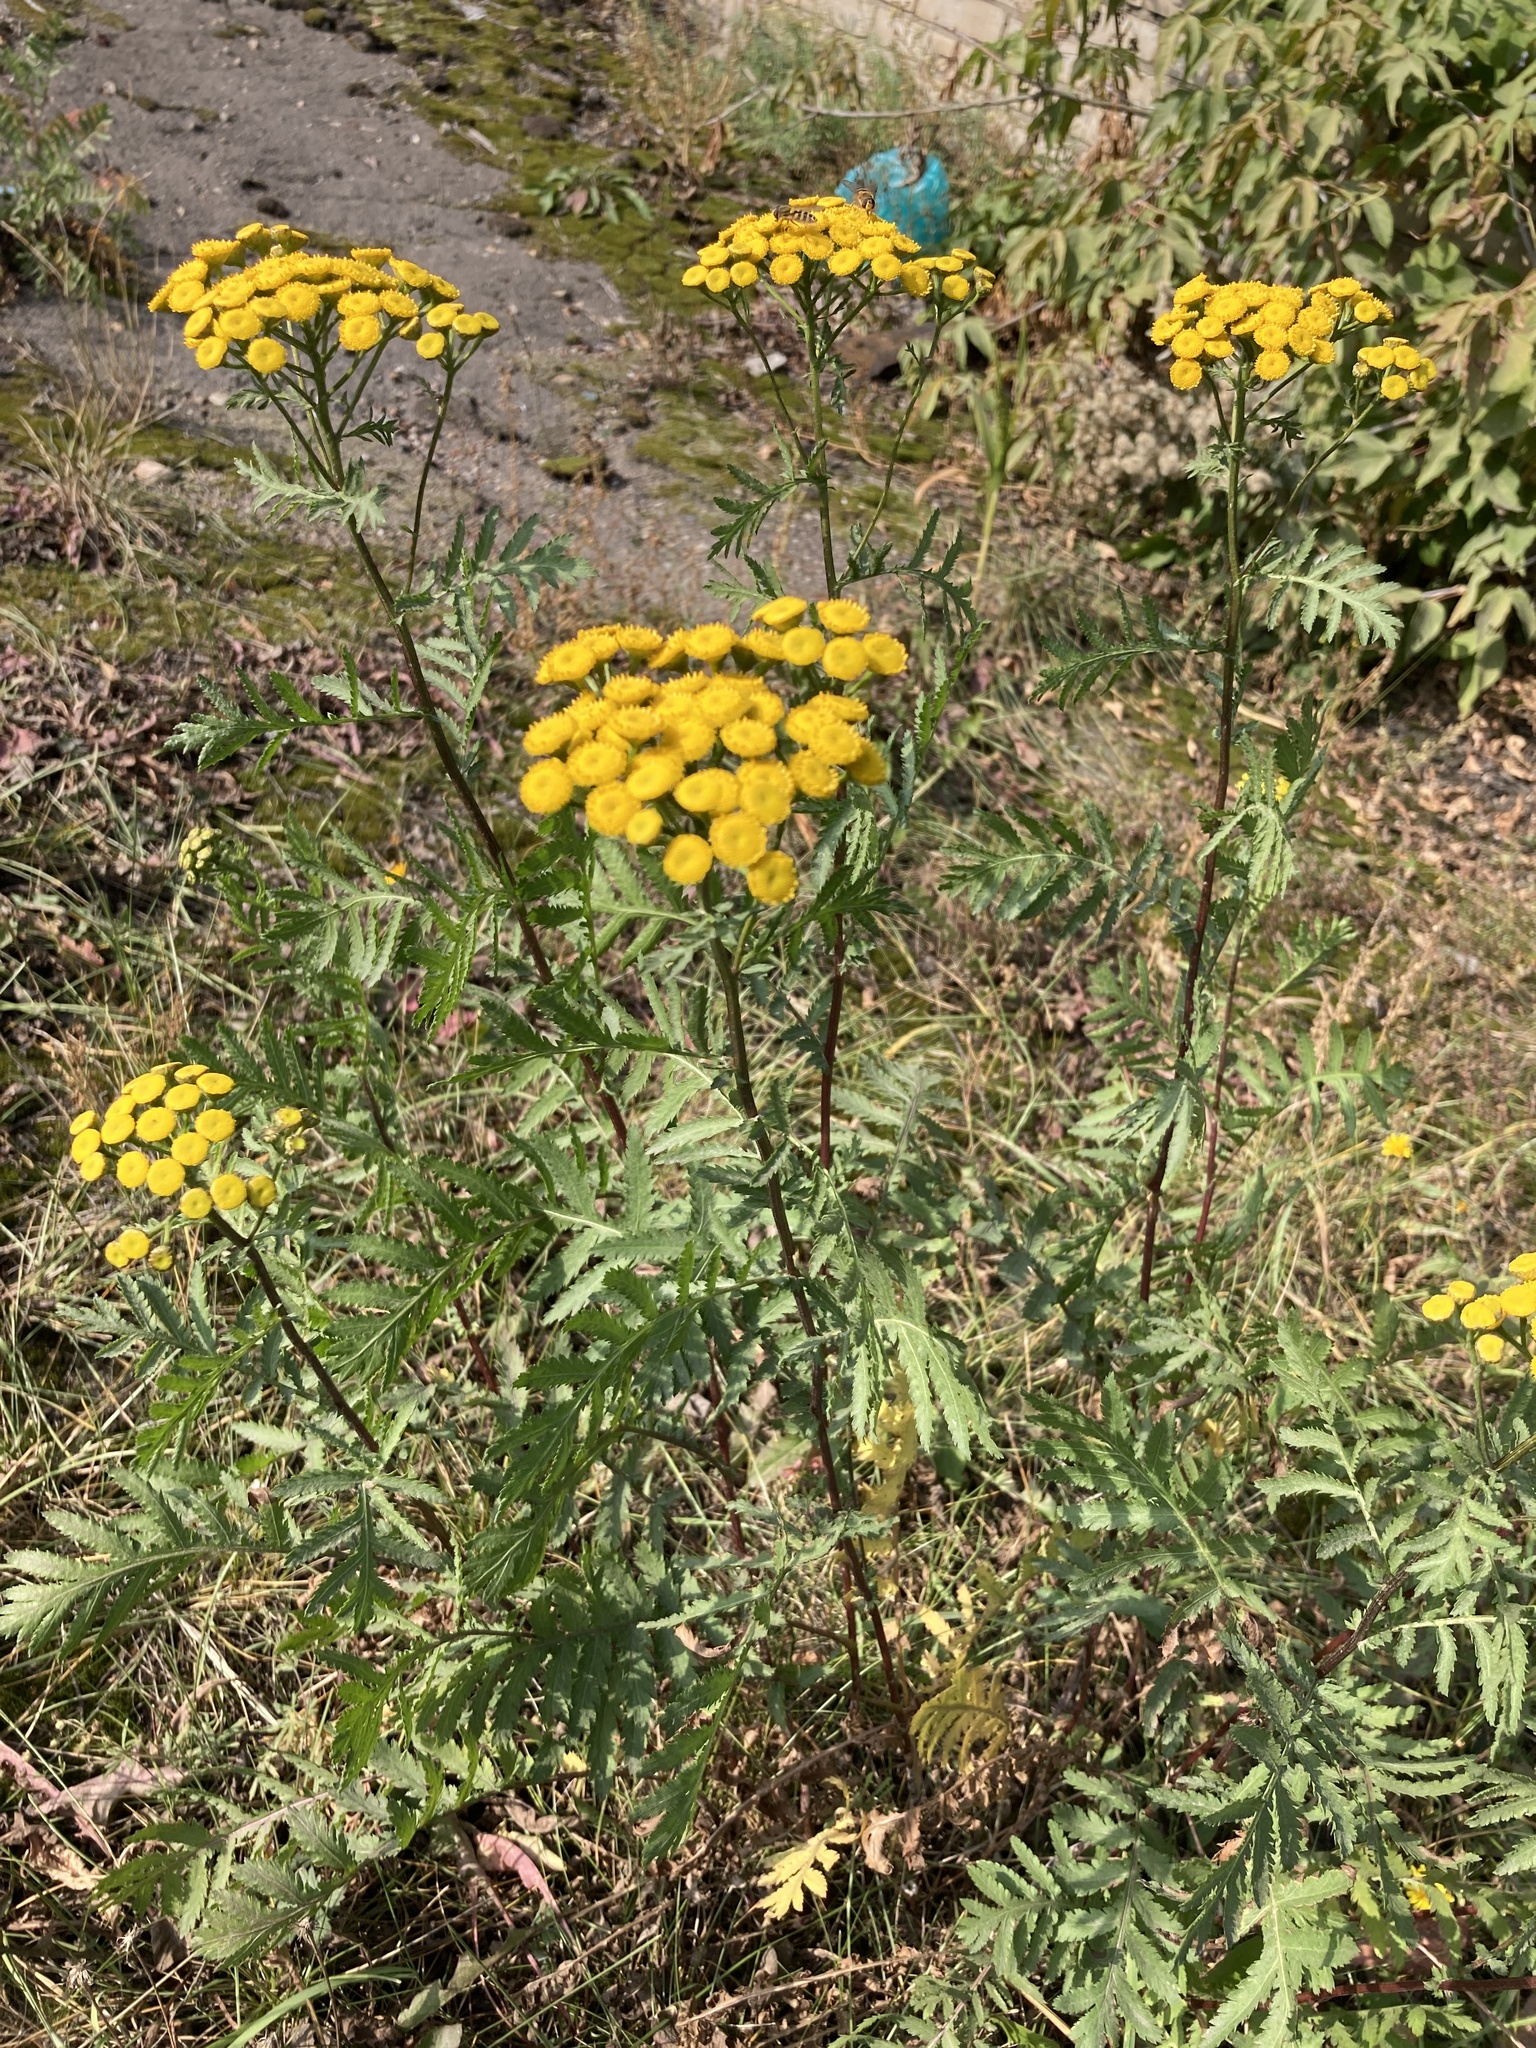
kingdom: Plantae
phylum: Tracheophyta
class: Magnoliopsida
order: Asterales
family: Asteraceae
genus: Tanacetum
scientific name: Tanacetum vulgare
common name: Common tansy
